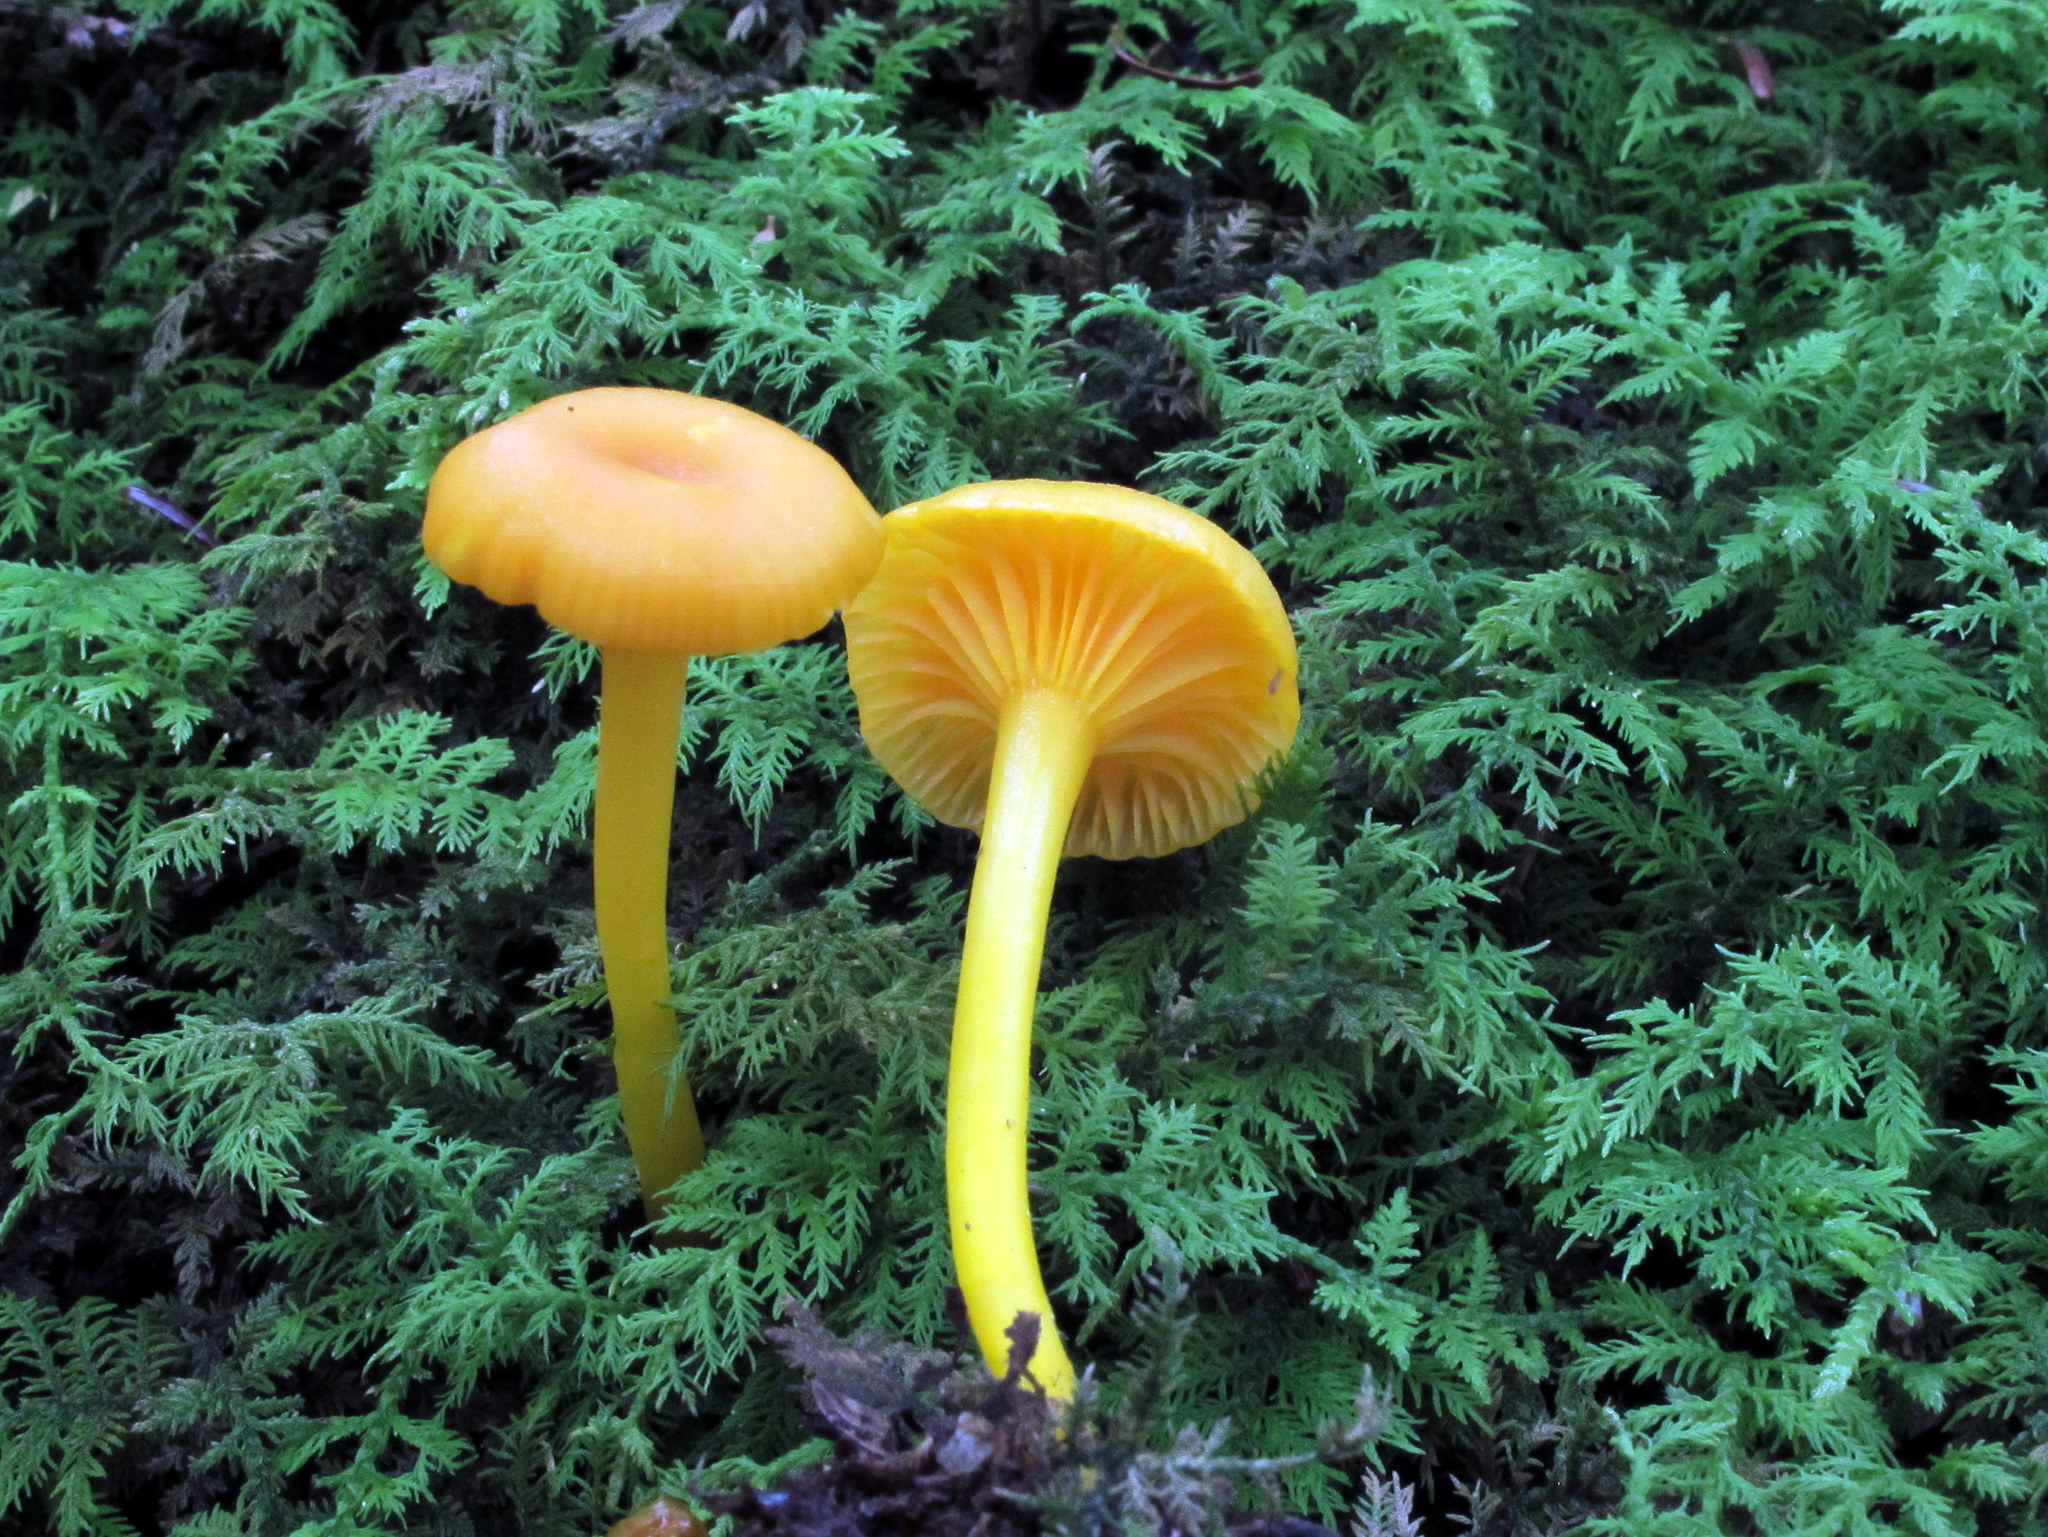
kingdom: Fungi
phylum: Basidiomycota
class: Agaricomycetes
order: Agaricales
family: Hygrophoraceae
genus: Gloioxanthomyces
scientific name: Gloioxanthomyces nitidus
